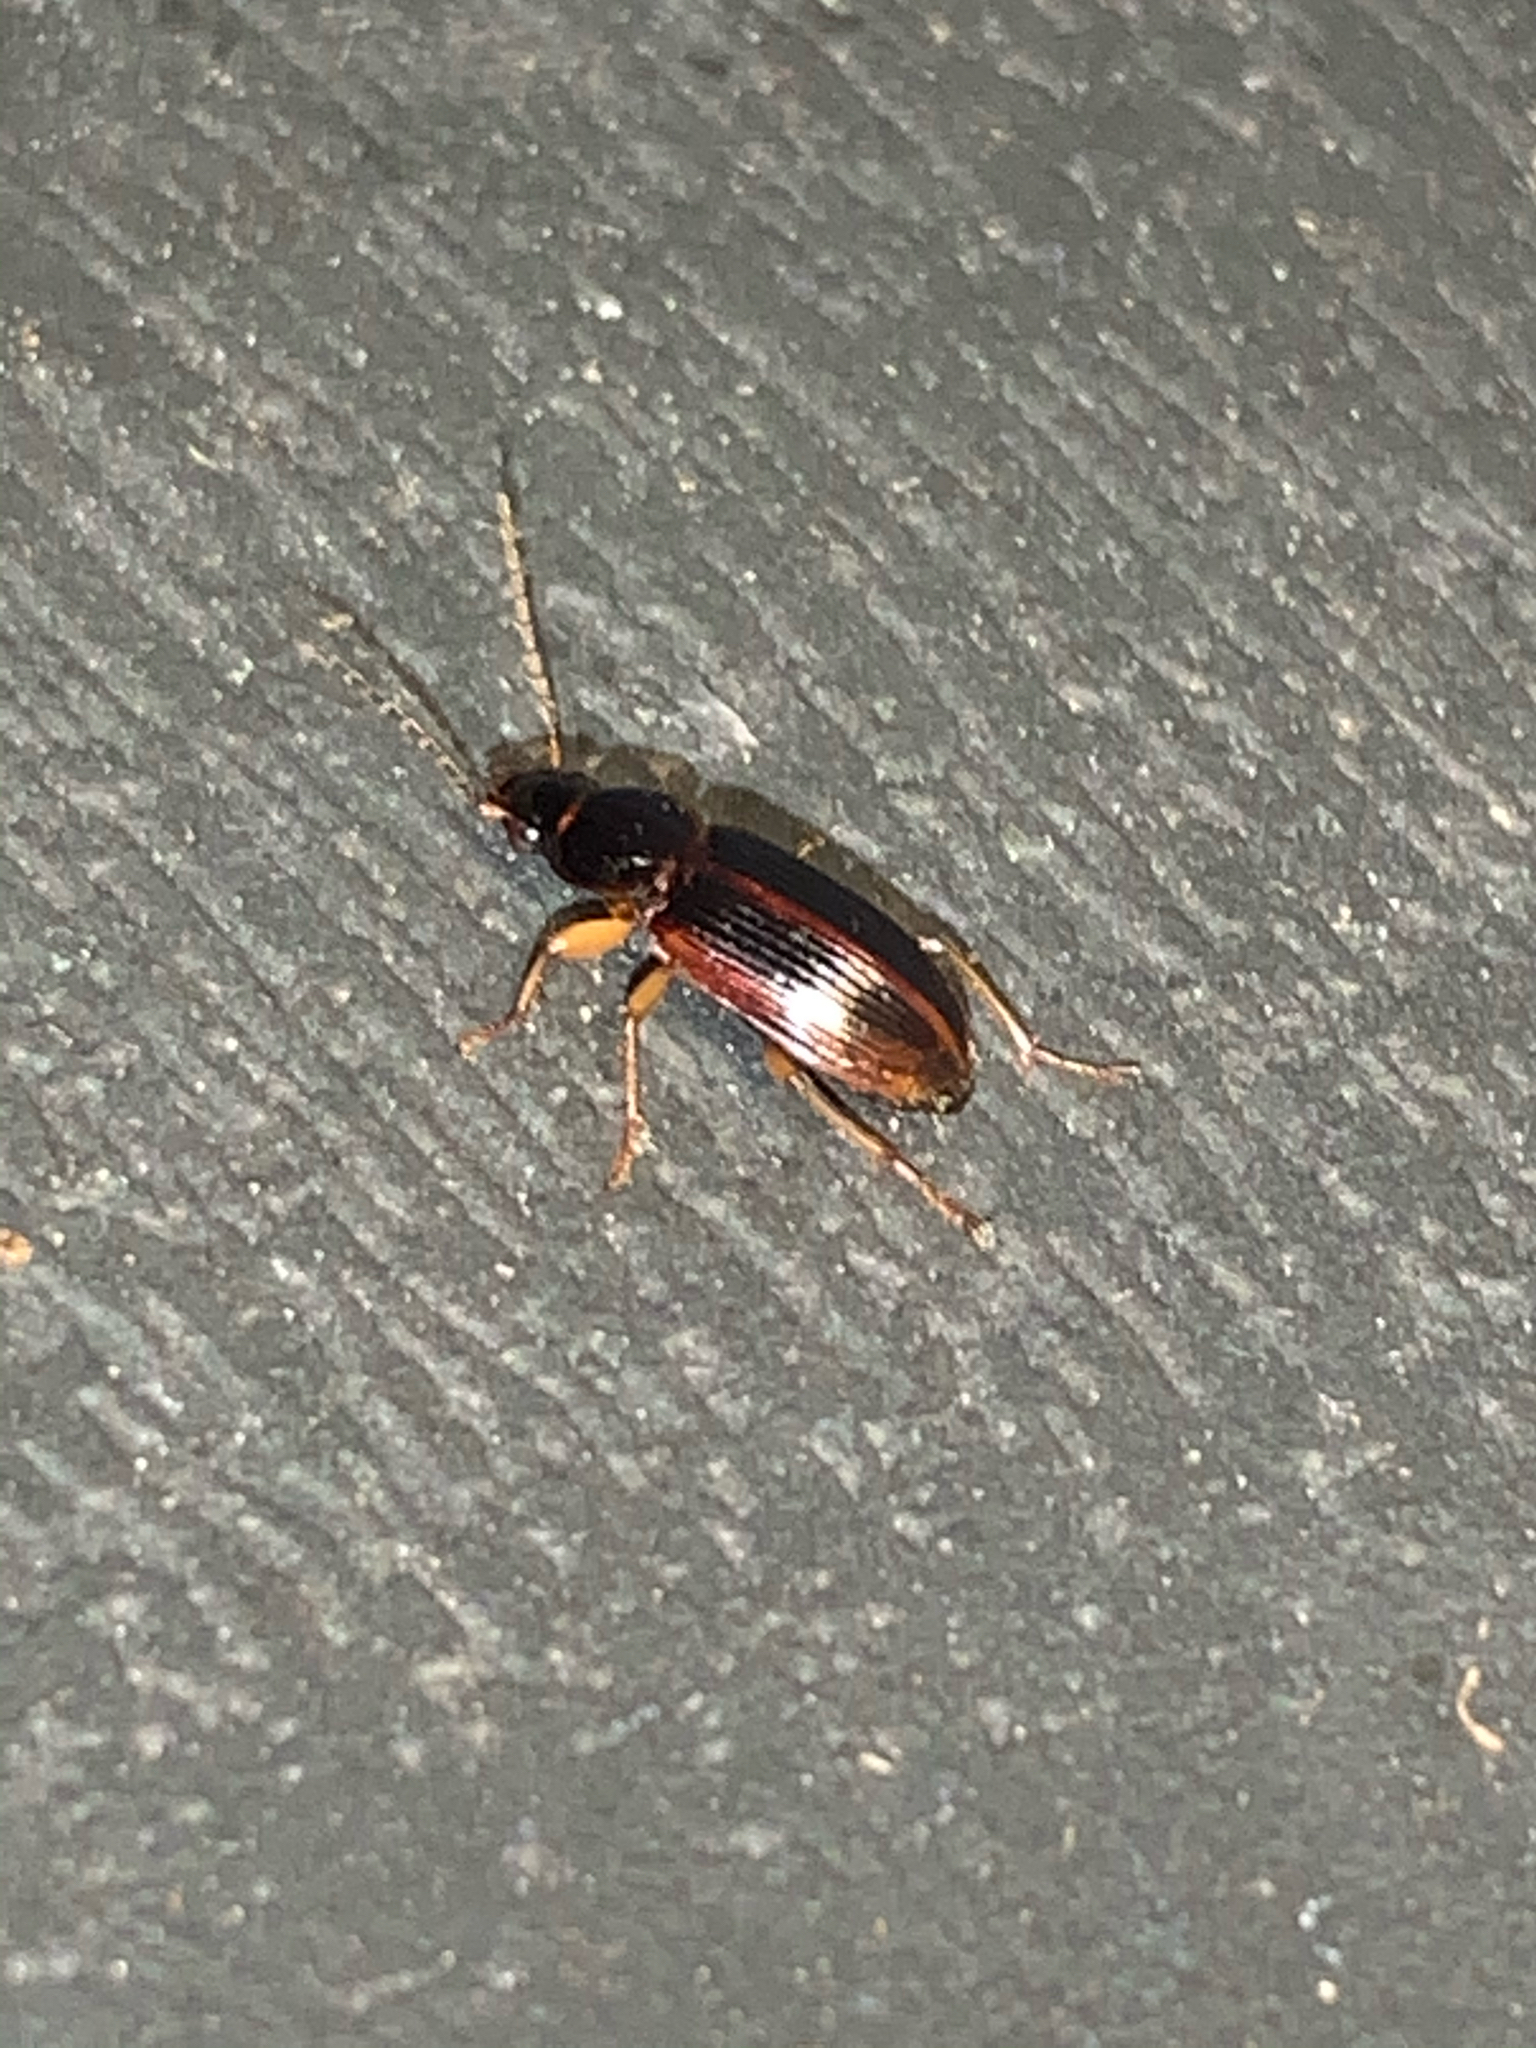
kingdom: Animalia
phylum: Arthropoda
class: Insecta
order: Coleoptera
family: Carabidae
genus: Stenolophus
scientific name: Stenolophus
